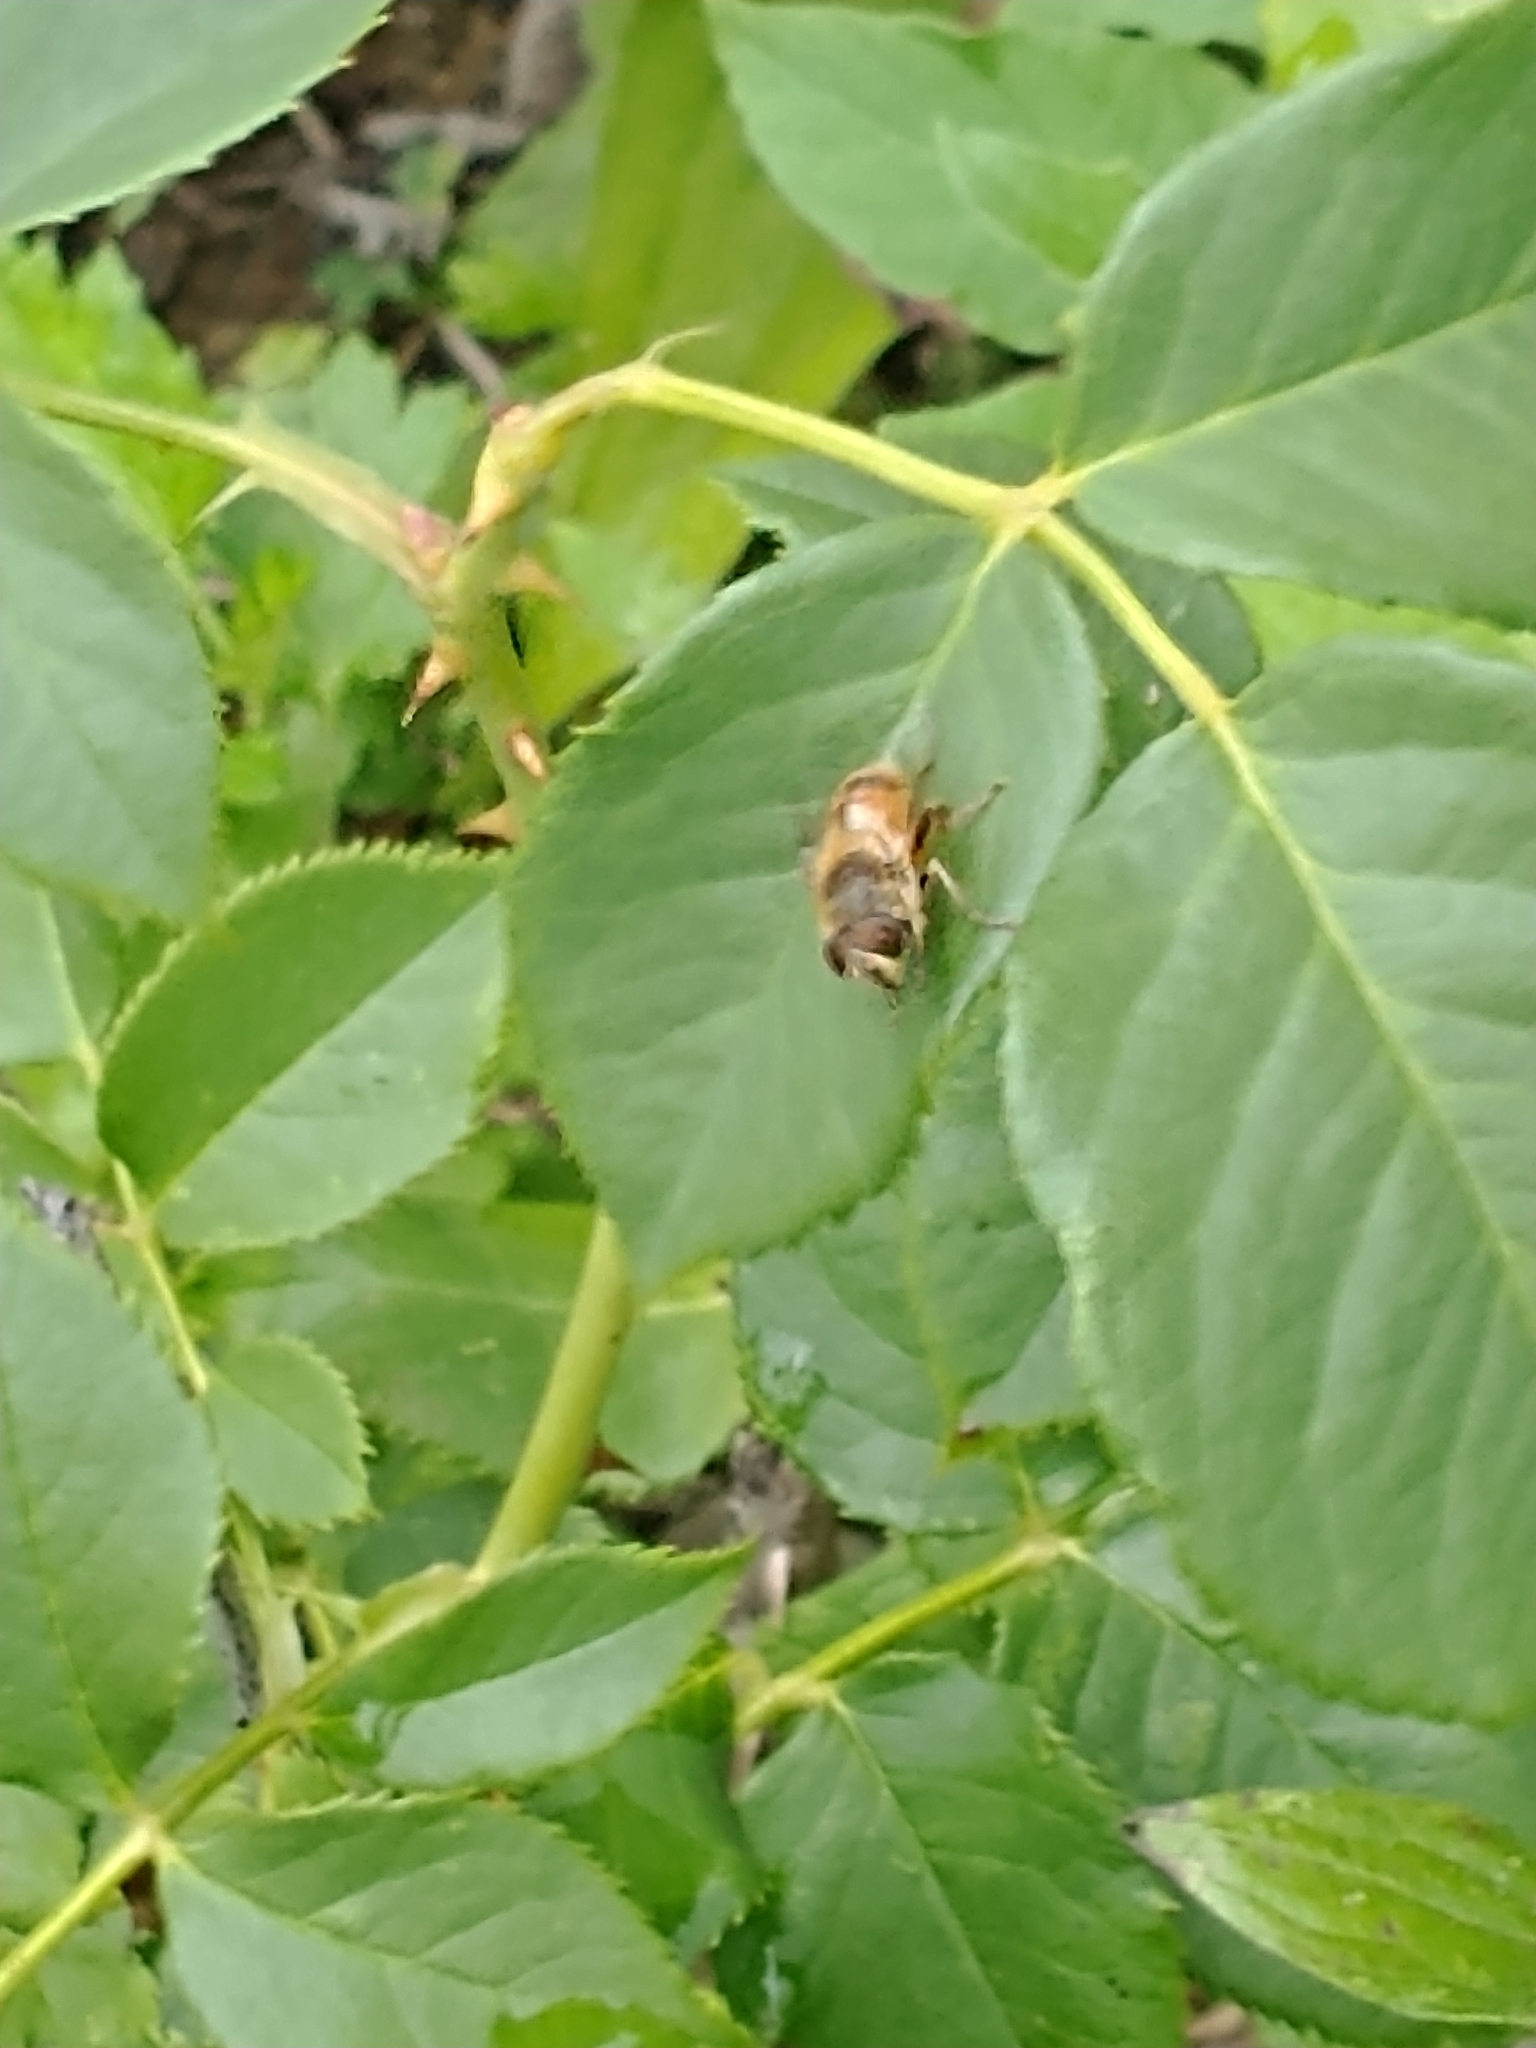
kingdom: Animalia
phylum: Arthropoda
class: Insecta
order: Diptera
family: Syrphidae
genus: Eristalis
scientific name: Eristalis tenax
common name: Drone fly
